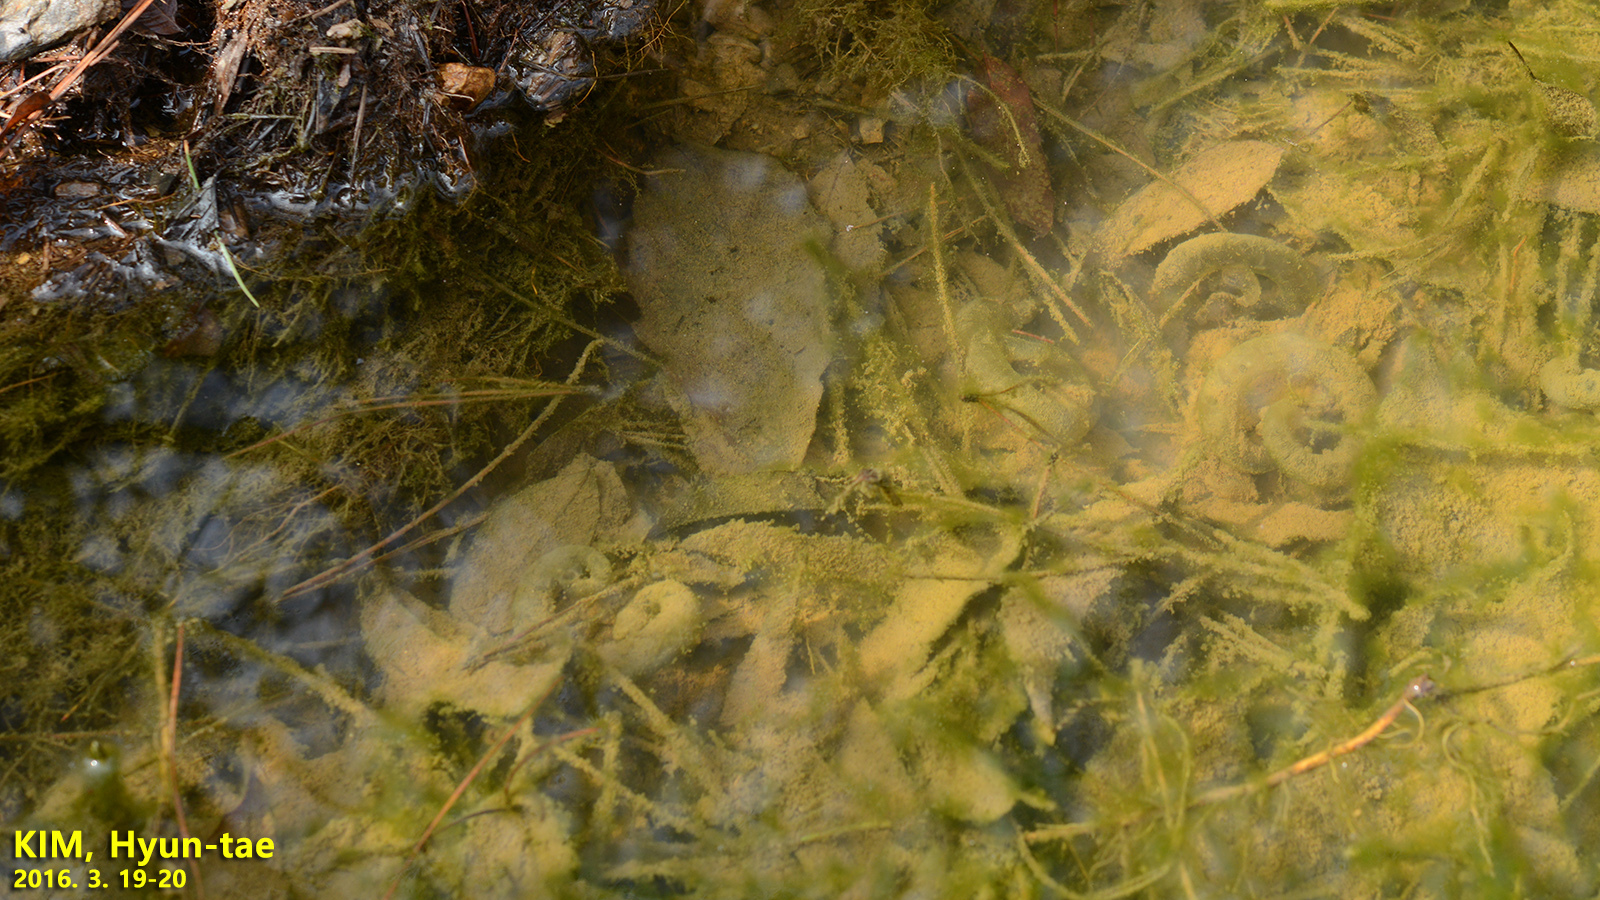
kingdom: Animalia
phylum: Chordata
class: Amphibia
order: Caudata
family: Hynobiidae
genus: Hynobius
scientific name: Hynobius leechii
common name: Gensan salamander
